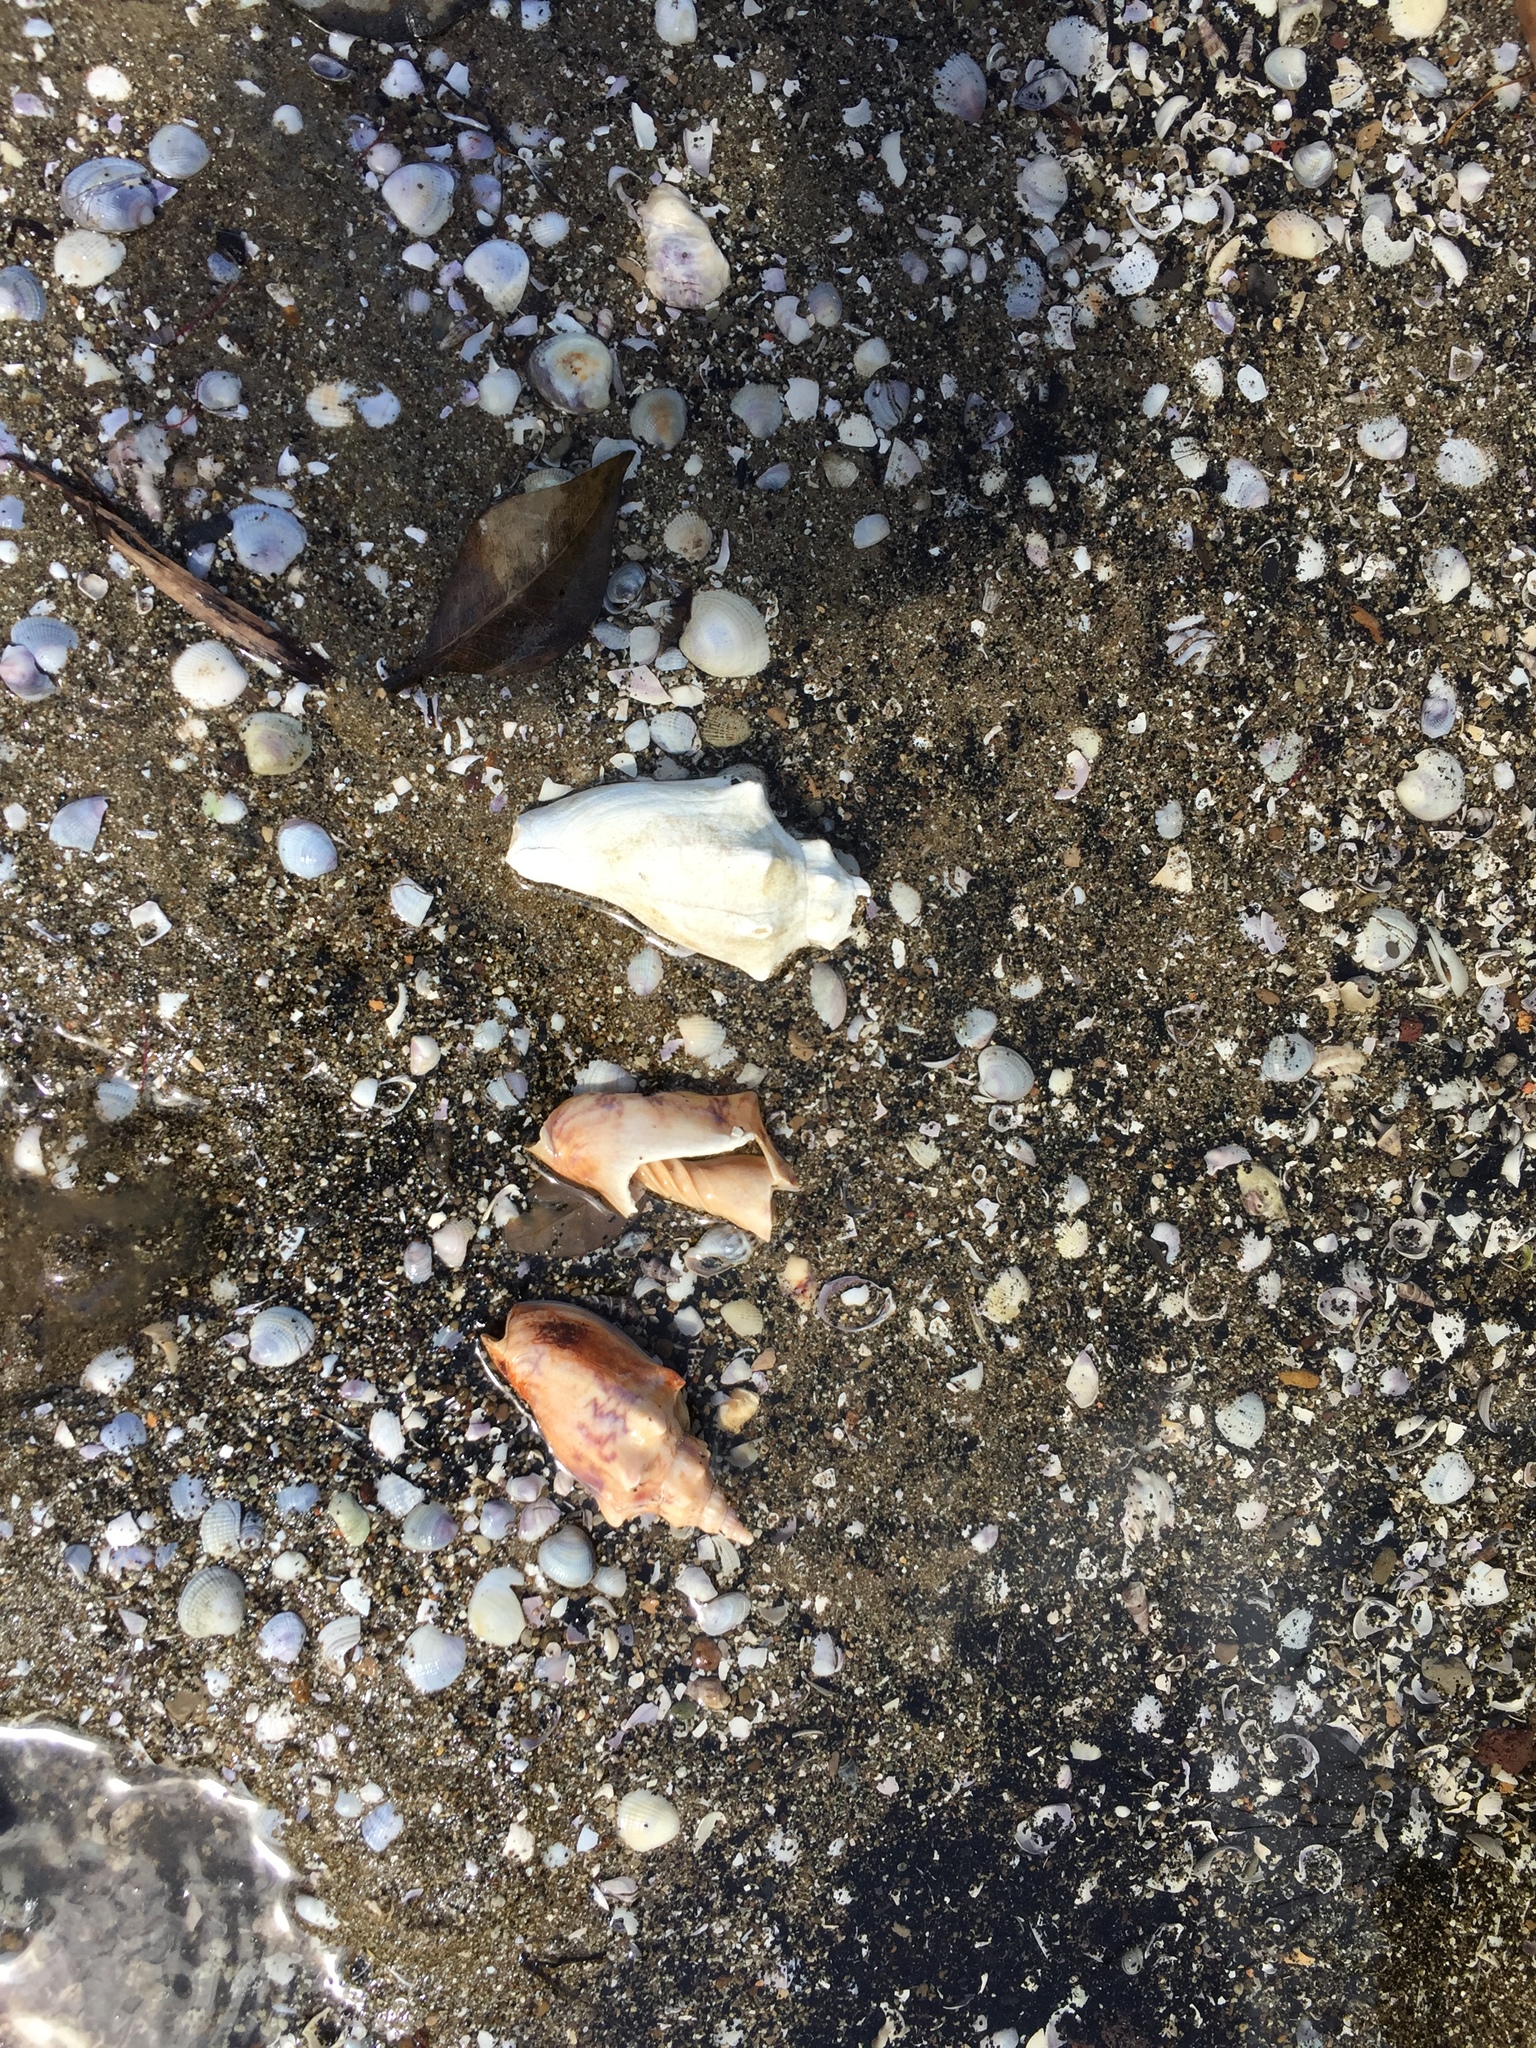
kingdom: Animalia
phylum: Mollusca
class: Gastropoda
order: Neogastropoda
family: Volutidae
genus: Alcithoe
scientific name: Alcithoe arabica
